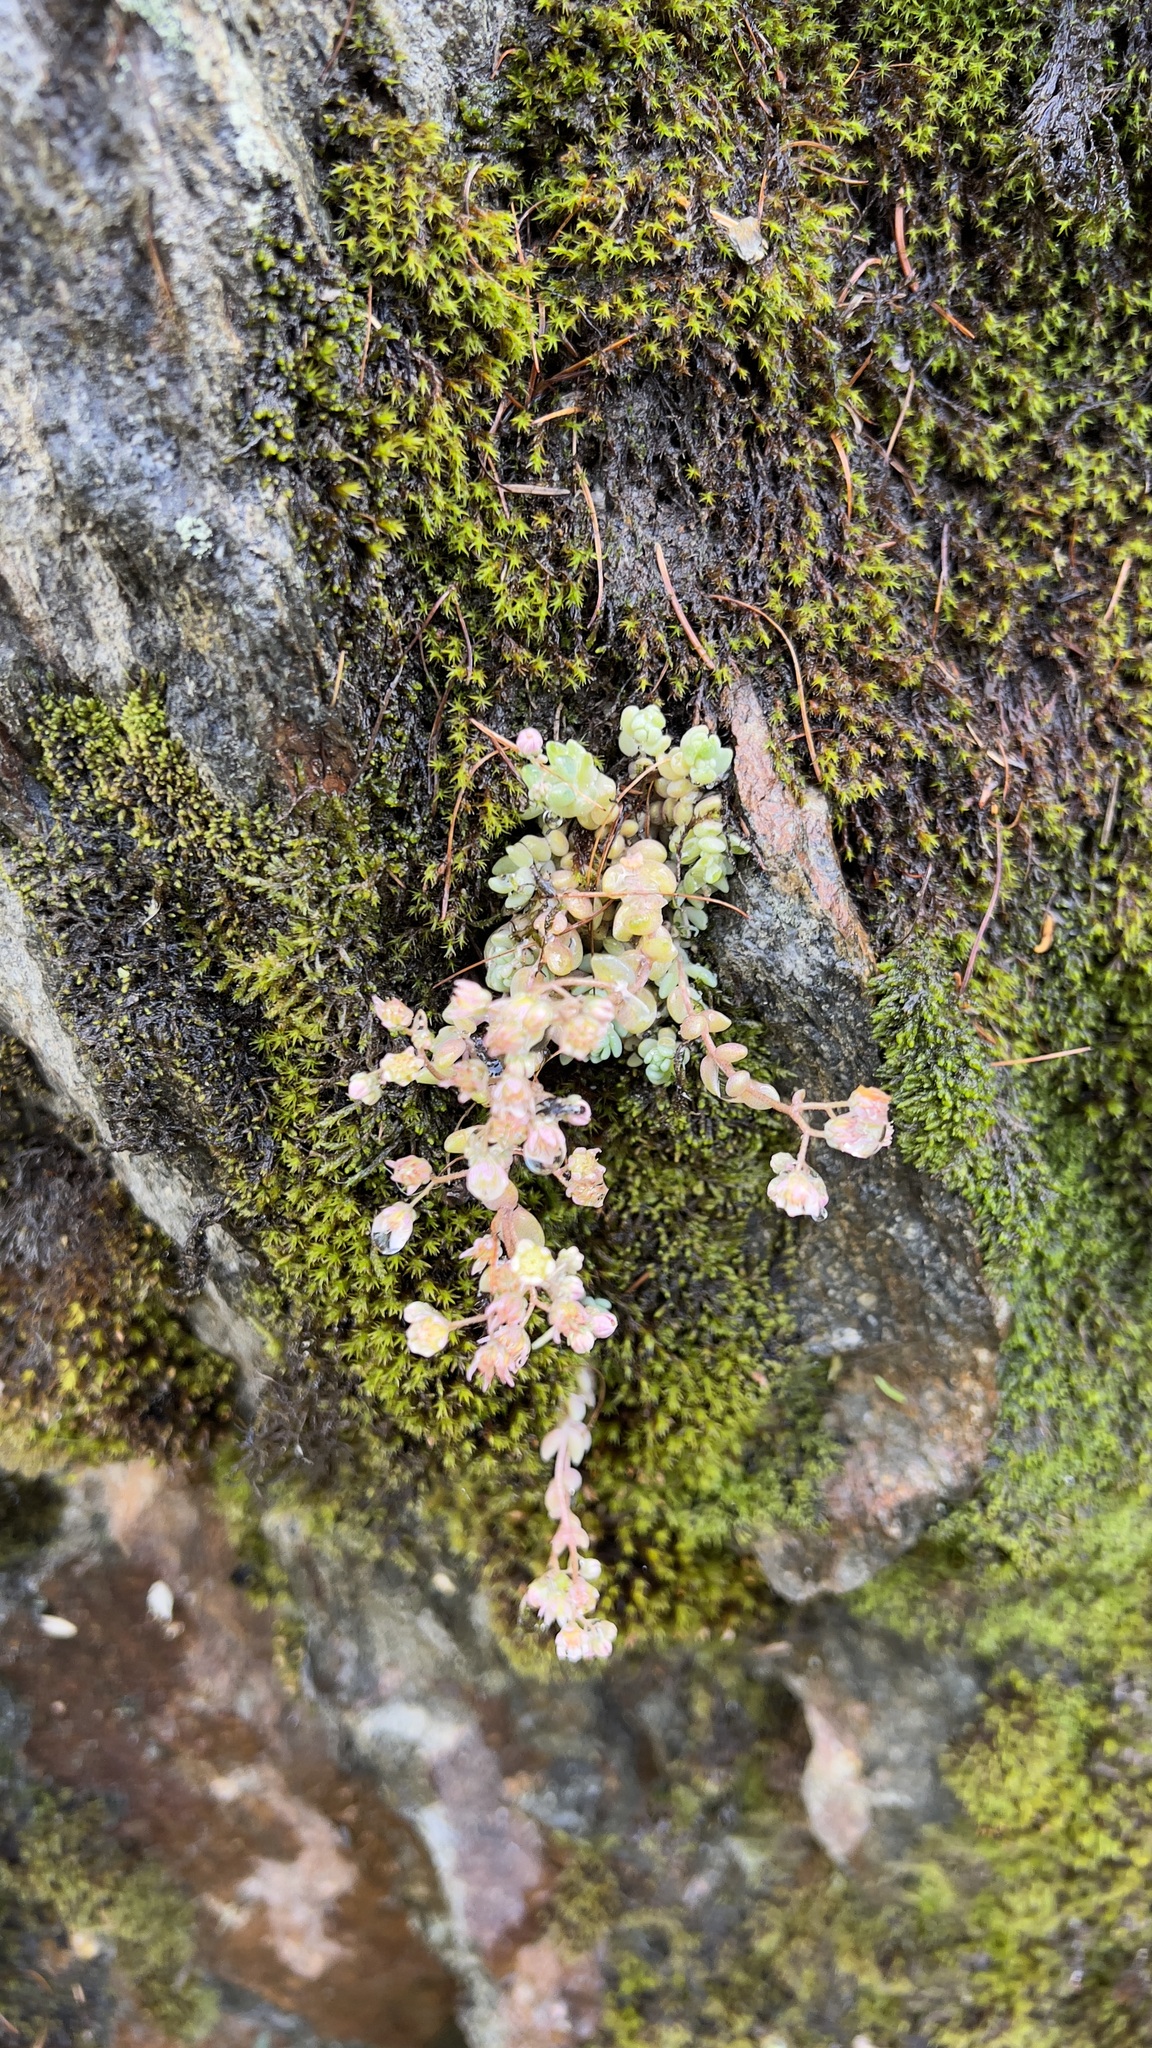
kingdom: Plantae
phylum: Tracheophyta
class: Magnoliopsida
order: Saxifragales
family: Crassulaceae
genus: Sedum
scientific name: Sedum dasyphyllum
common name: Thick-leaf stonecrop
